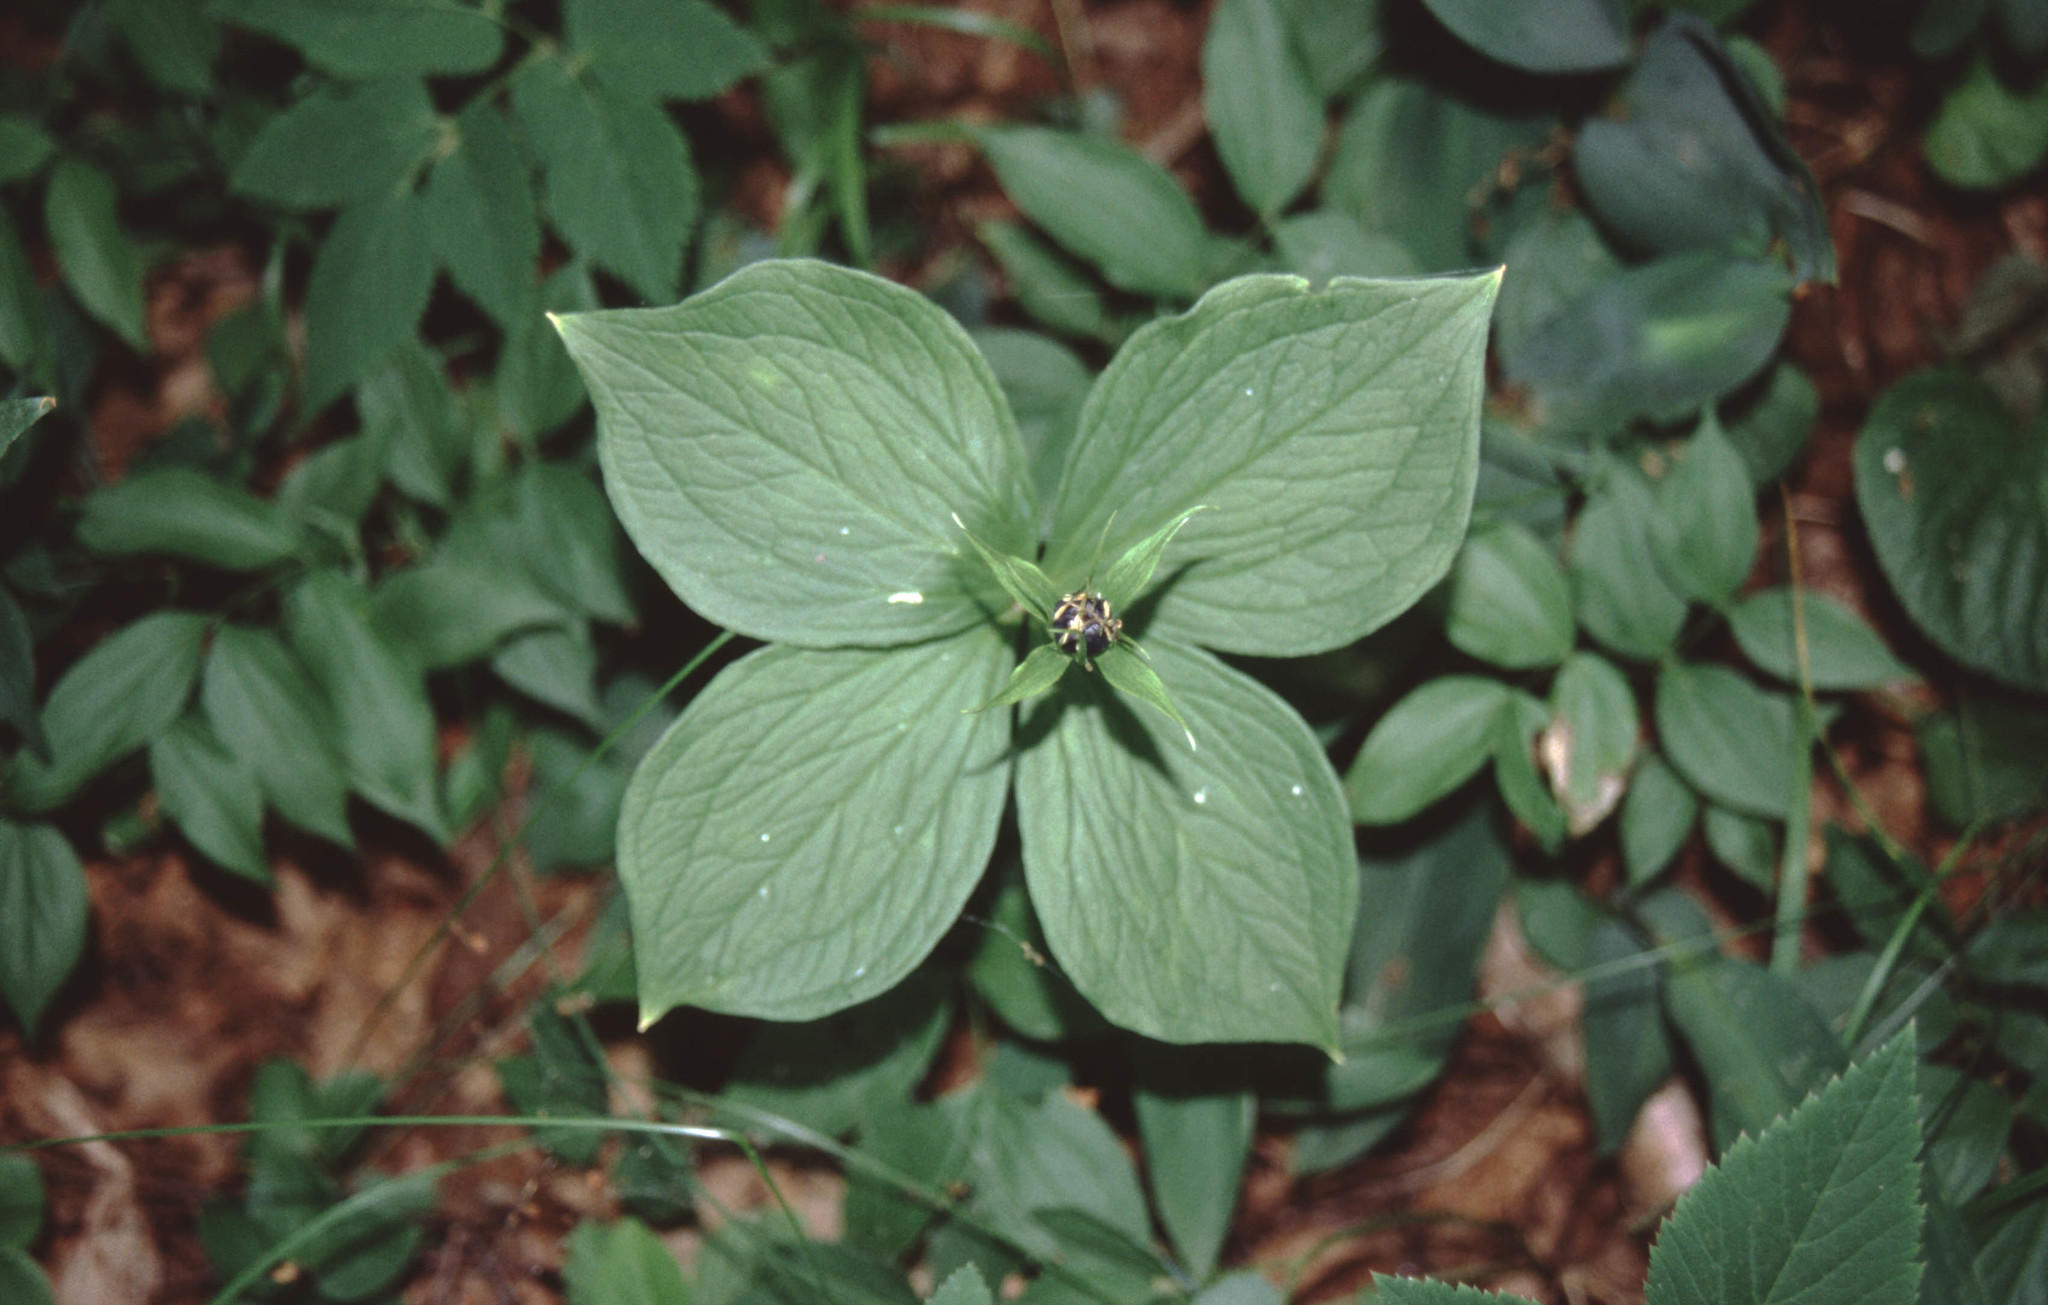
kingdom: Plantae
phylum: Tracheophyta
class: Liliopsida
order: Liliales
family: Melanthiaceae
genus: Paris
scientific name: Paris quadrifolia
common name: Herb-paris
